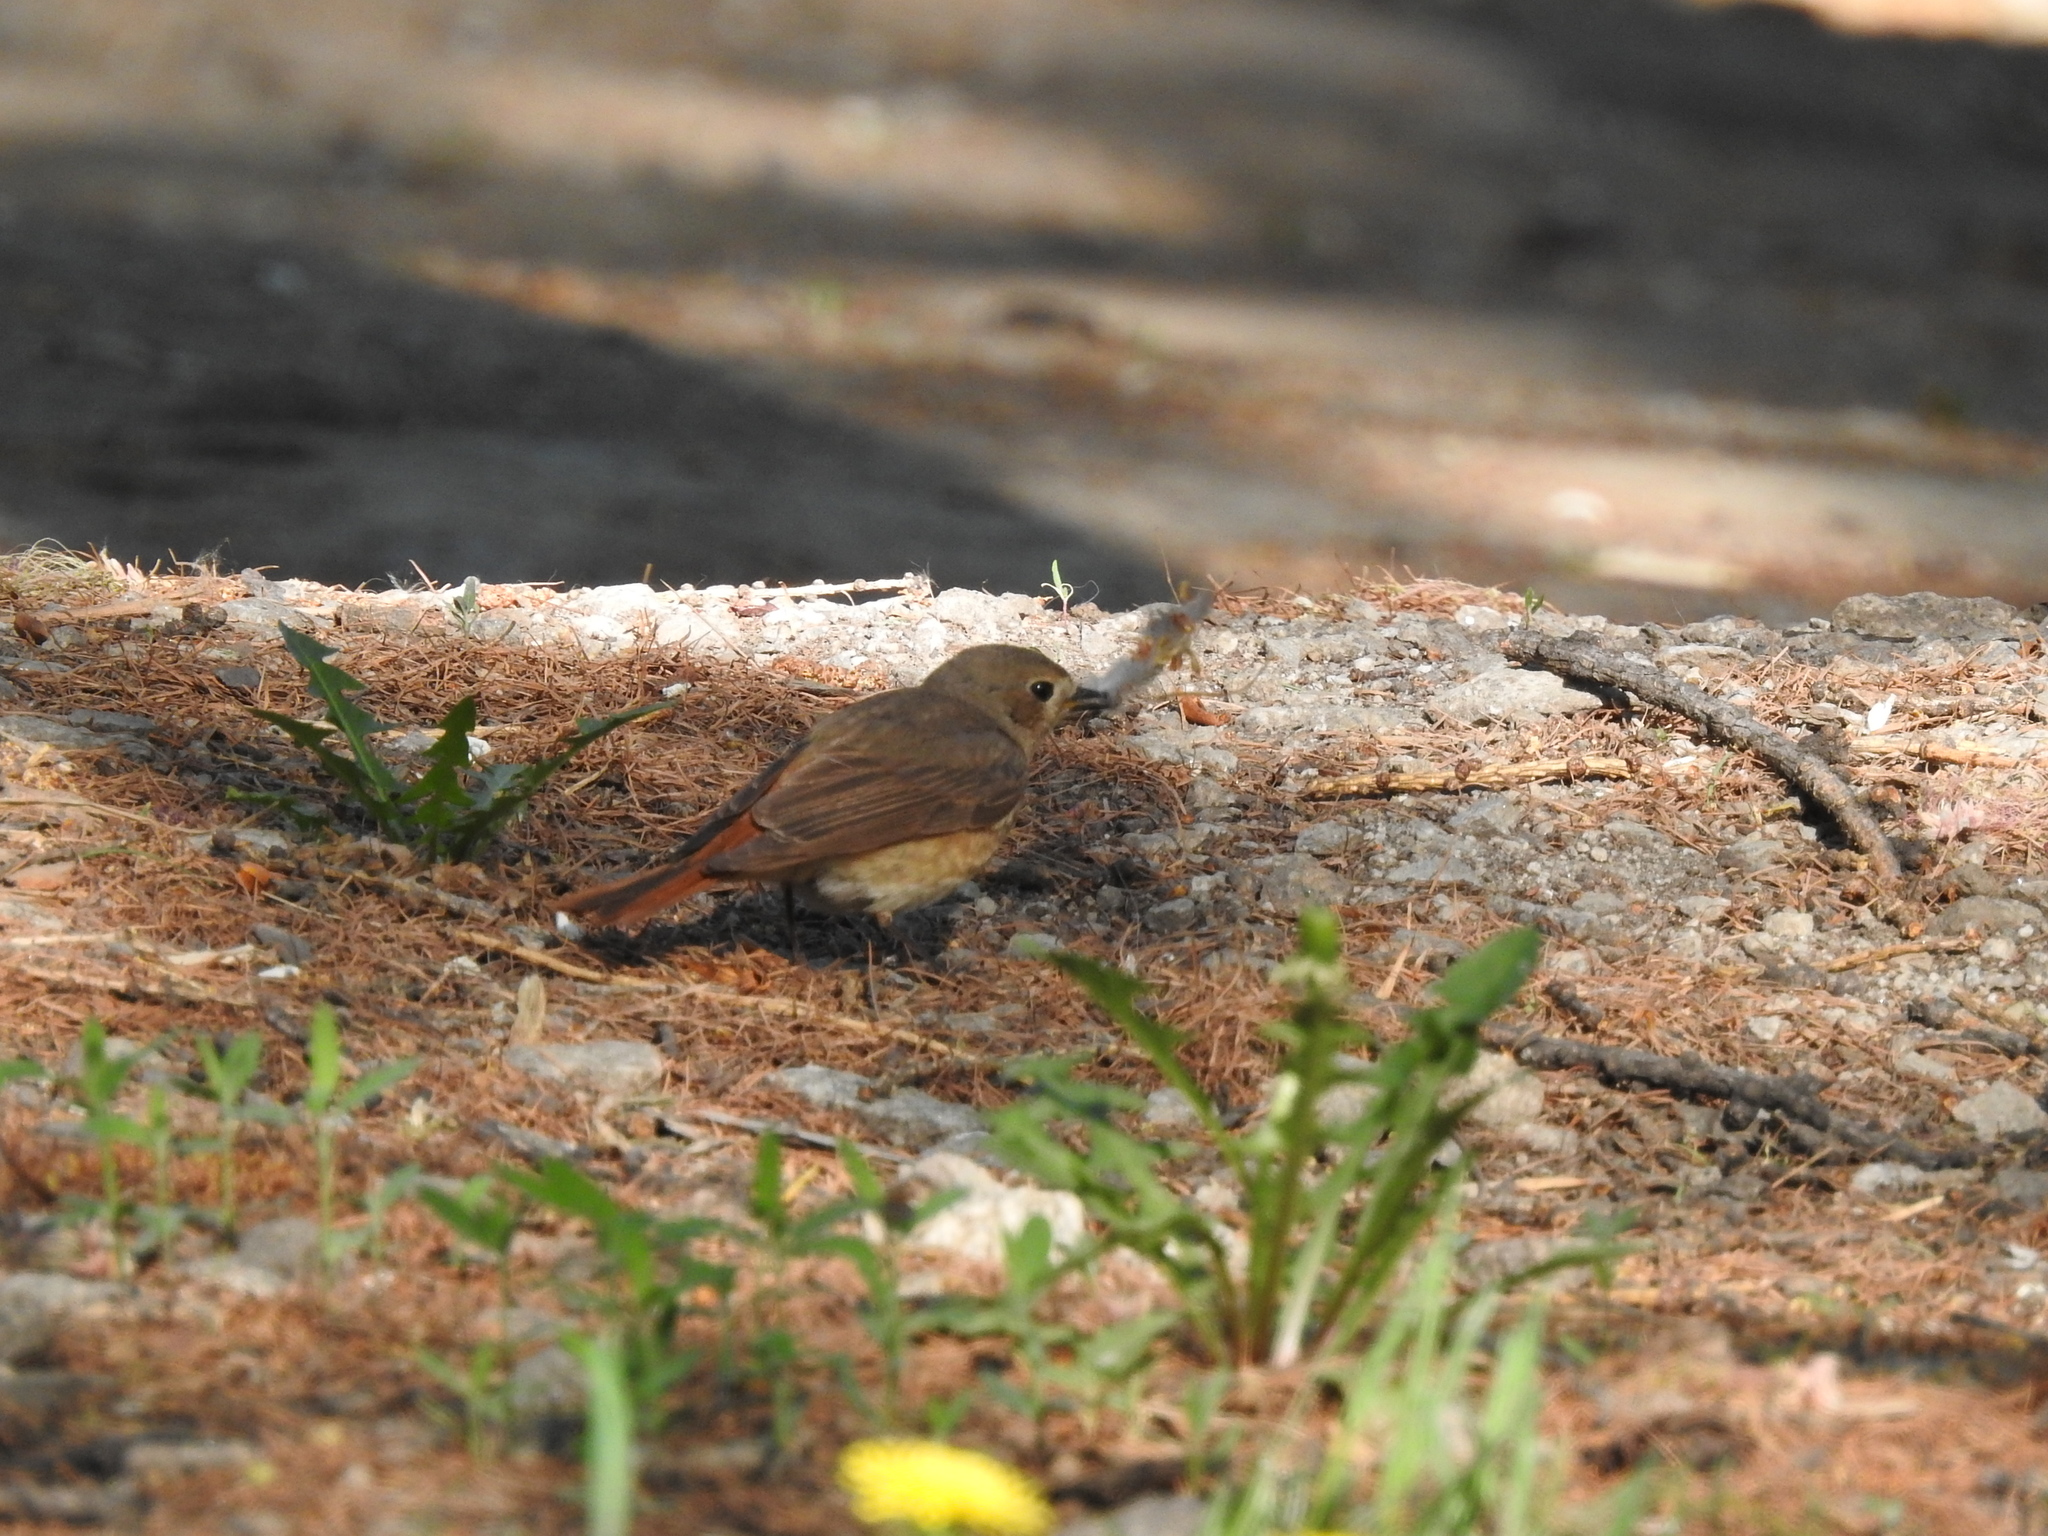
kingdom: Animalia
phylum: Chordata
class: Aves
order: Passeriformes
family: Muscicapidae
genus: Phoenicurus
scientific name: Phoenicurus phoenicurus
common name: Common redstart
